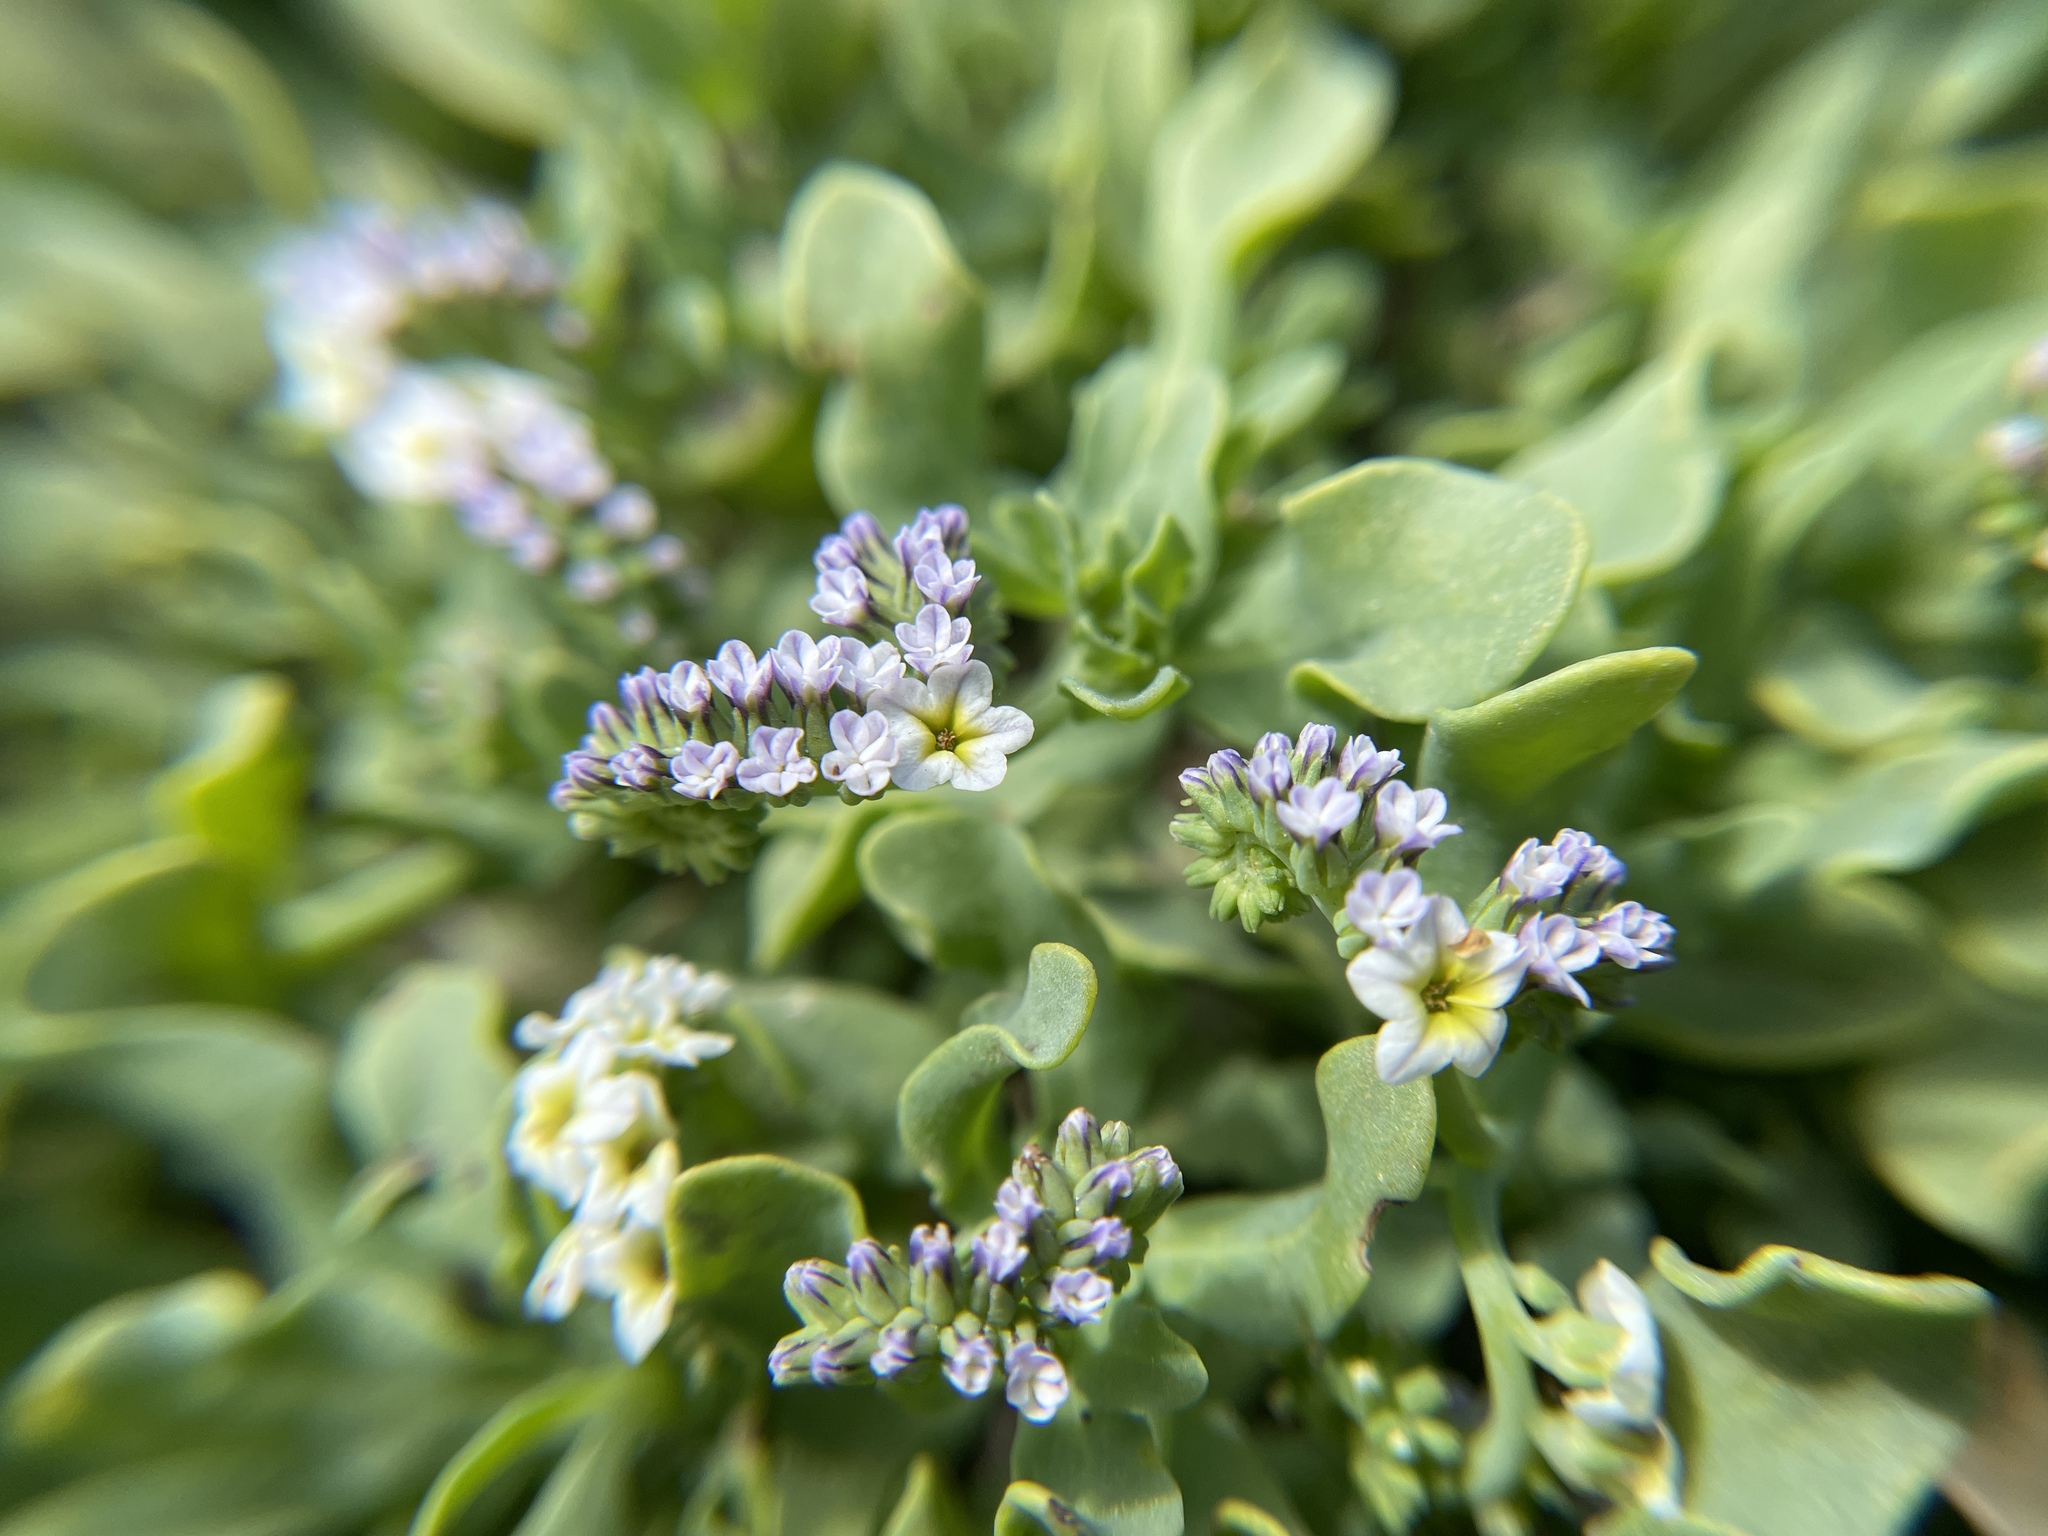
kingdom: Plantae
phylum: Tracheophyta
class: Magnoliopsida
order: Boraginales
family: Heliotropiaceae
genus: Heliotropium
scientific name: Heliotropium curassavicum
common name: Seaside heliotrope
